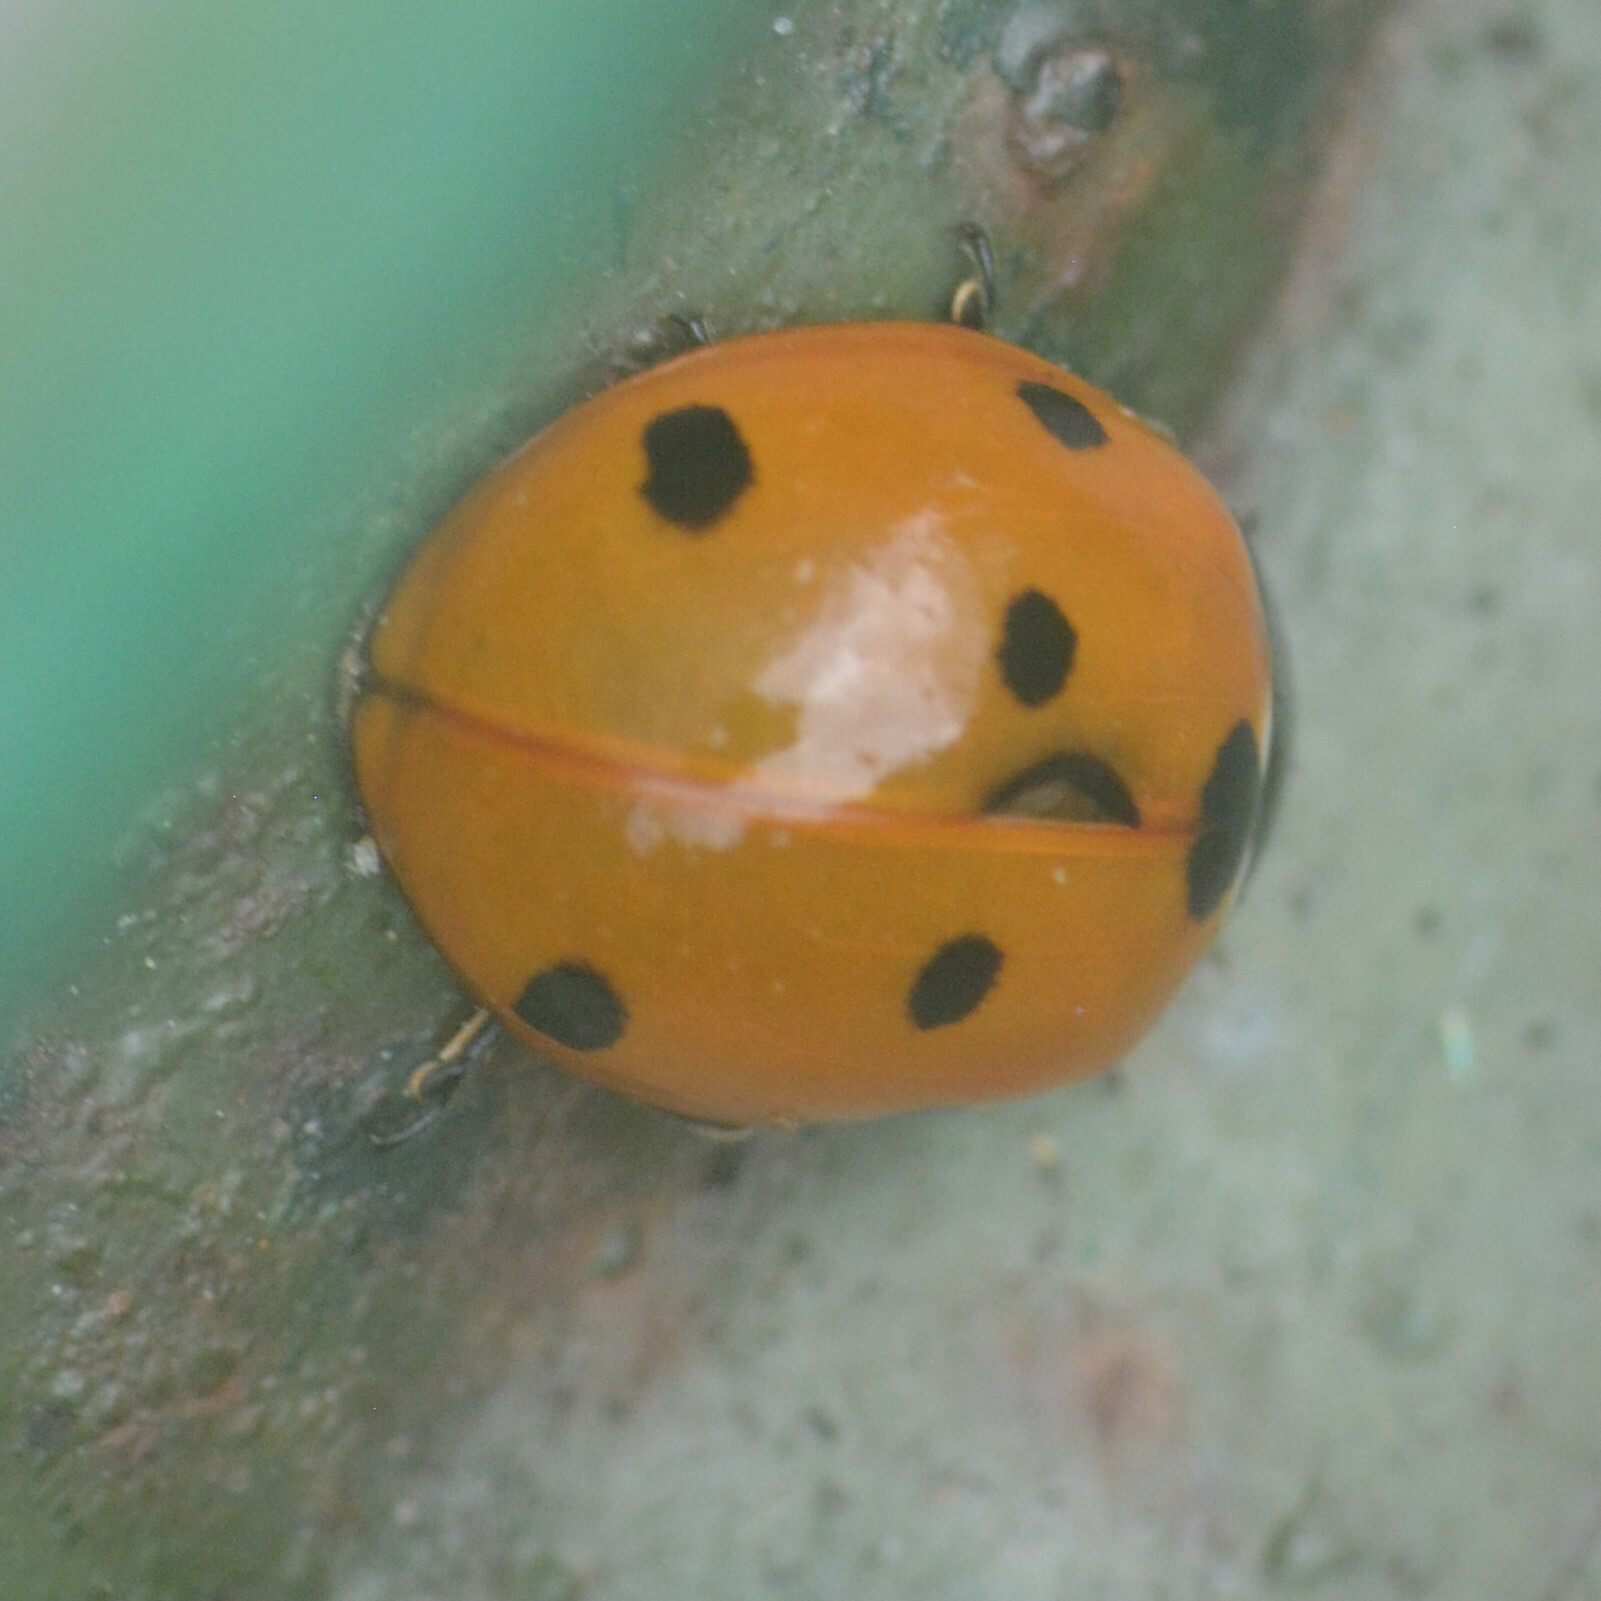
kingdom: Animalia
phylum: Arthropoda
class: Insecta
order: Coleoptera
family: Coccinellidae
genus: Coccinella
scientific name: Coccinella septempunctata
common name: Sevenspotted lady beetle
